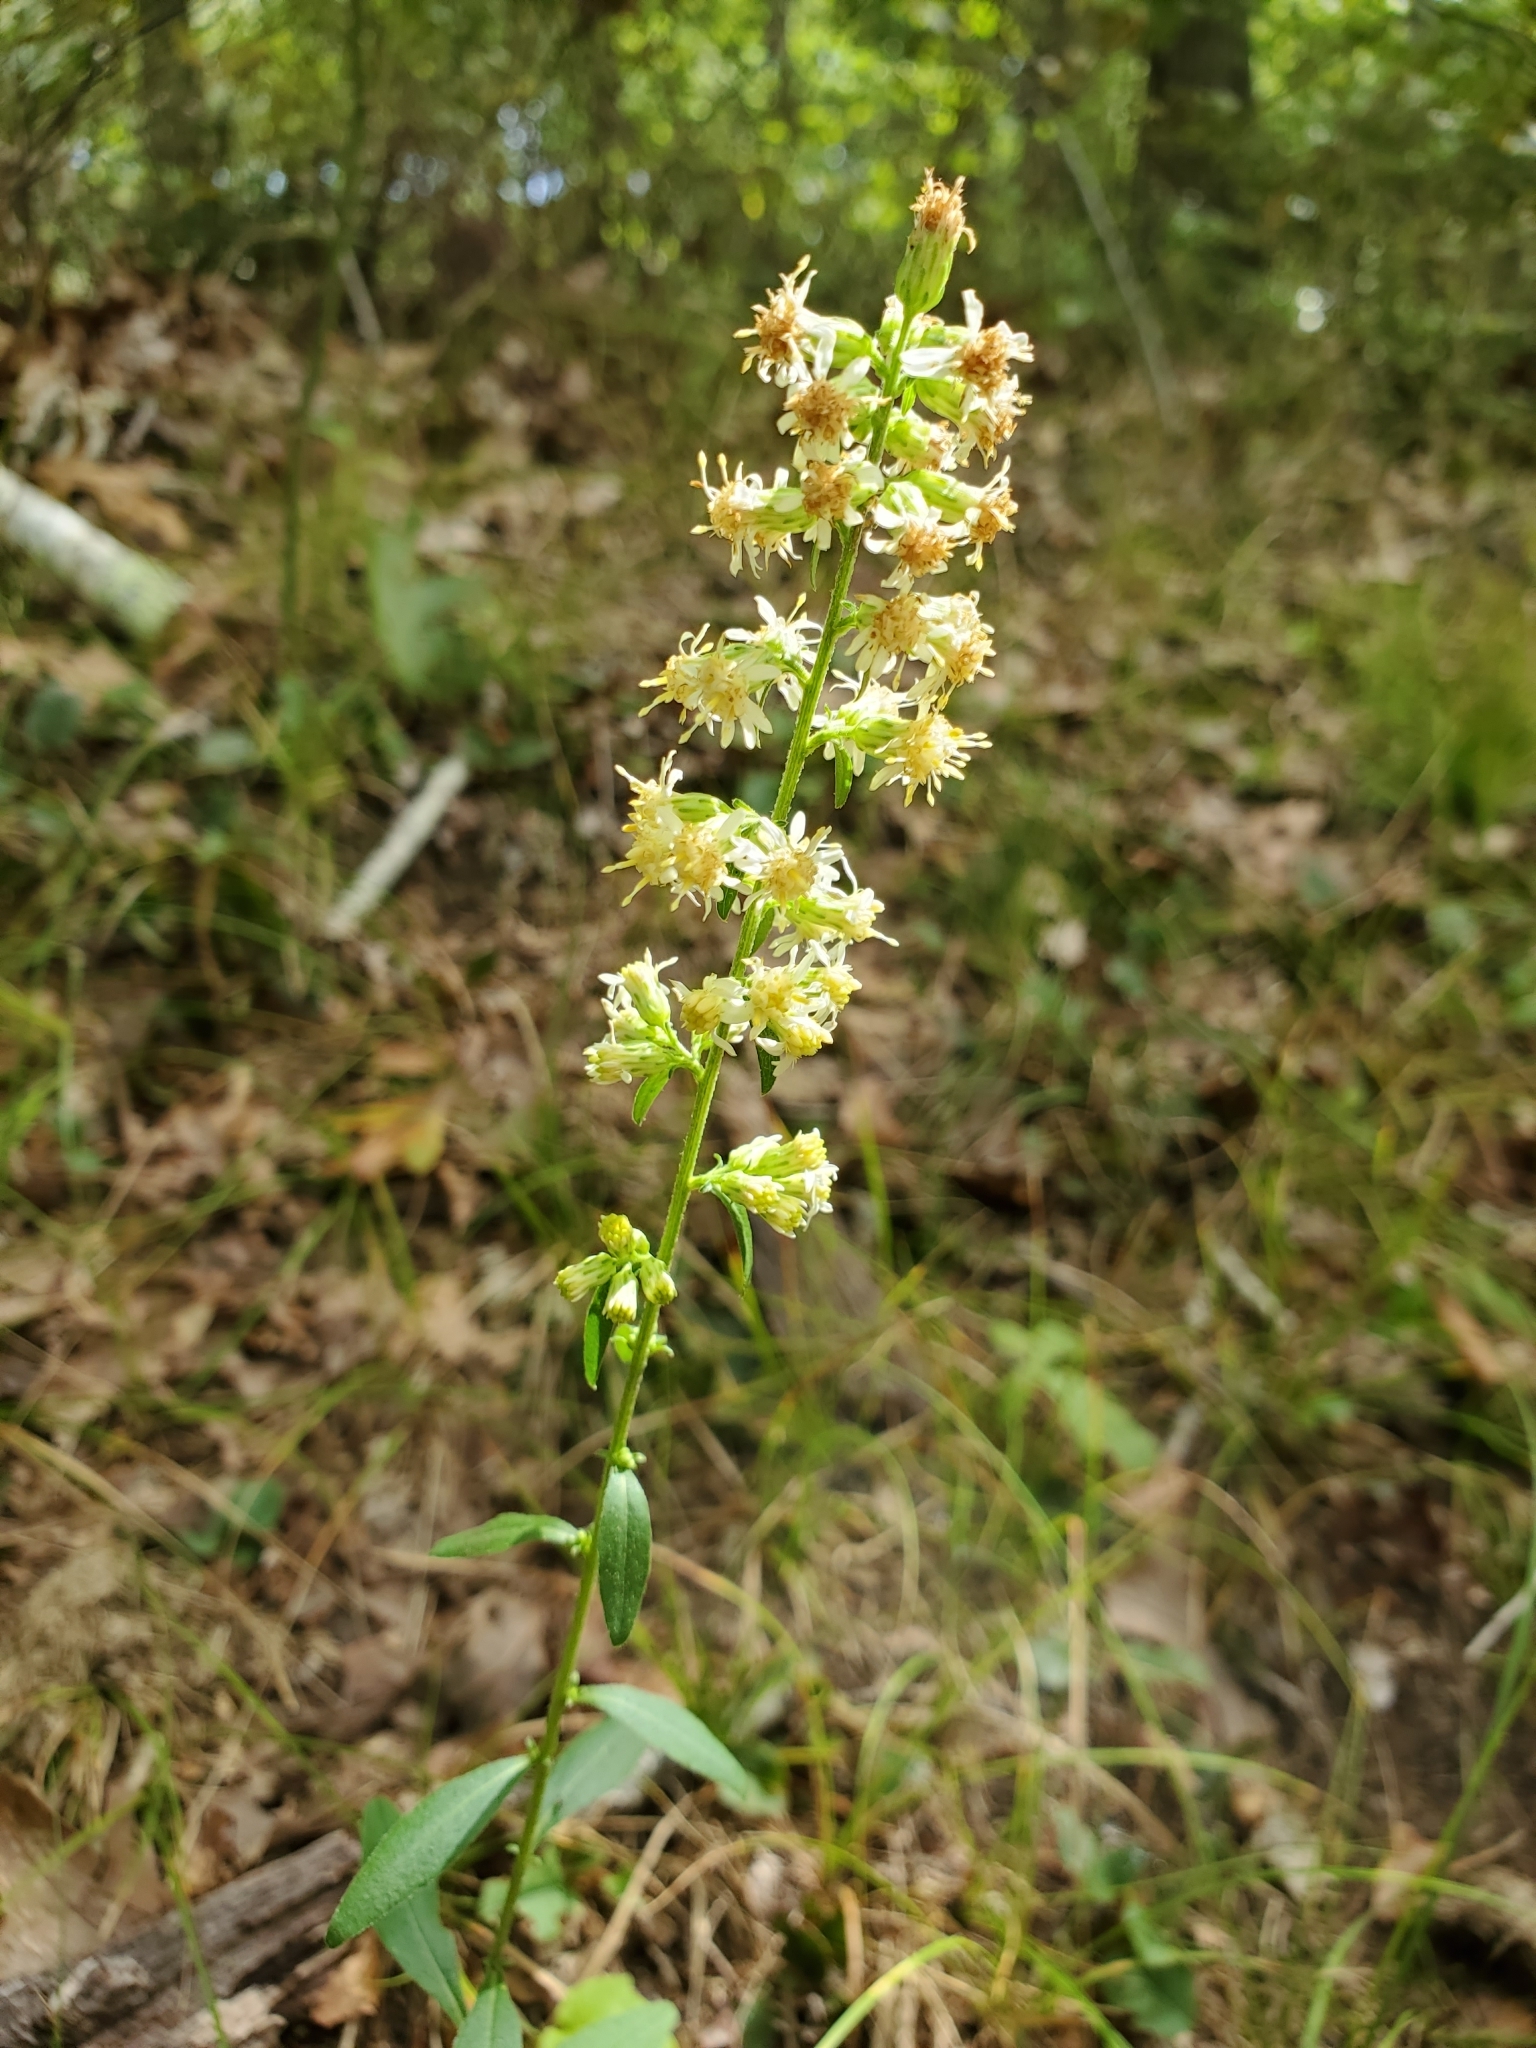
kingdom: Plantae
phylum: Tracheophyta
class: Magnoliopsida
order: Asterales
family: Asteraceae
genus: Solidago
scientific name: Solidago bicolor
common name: Silverrod
